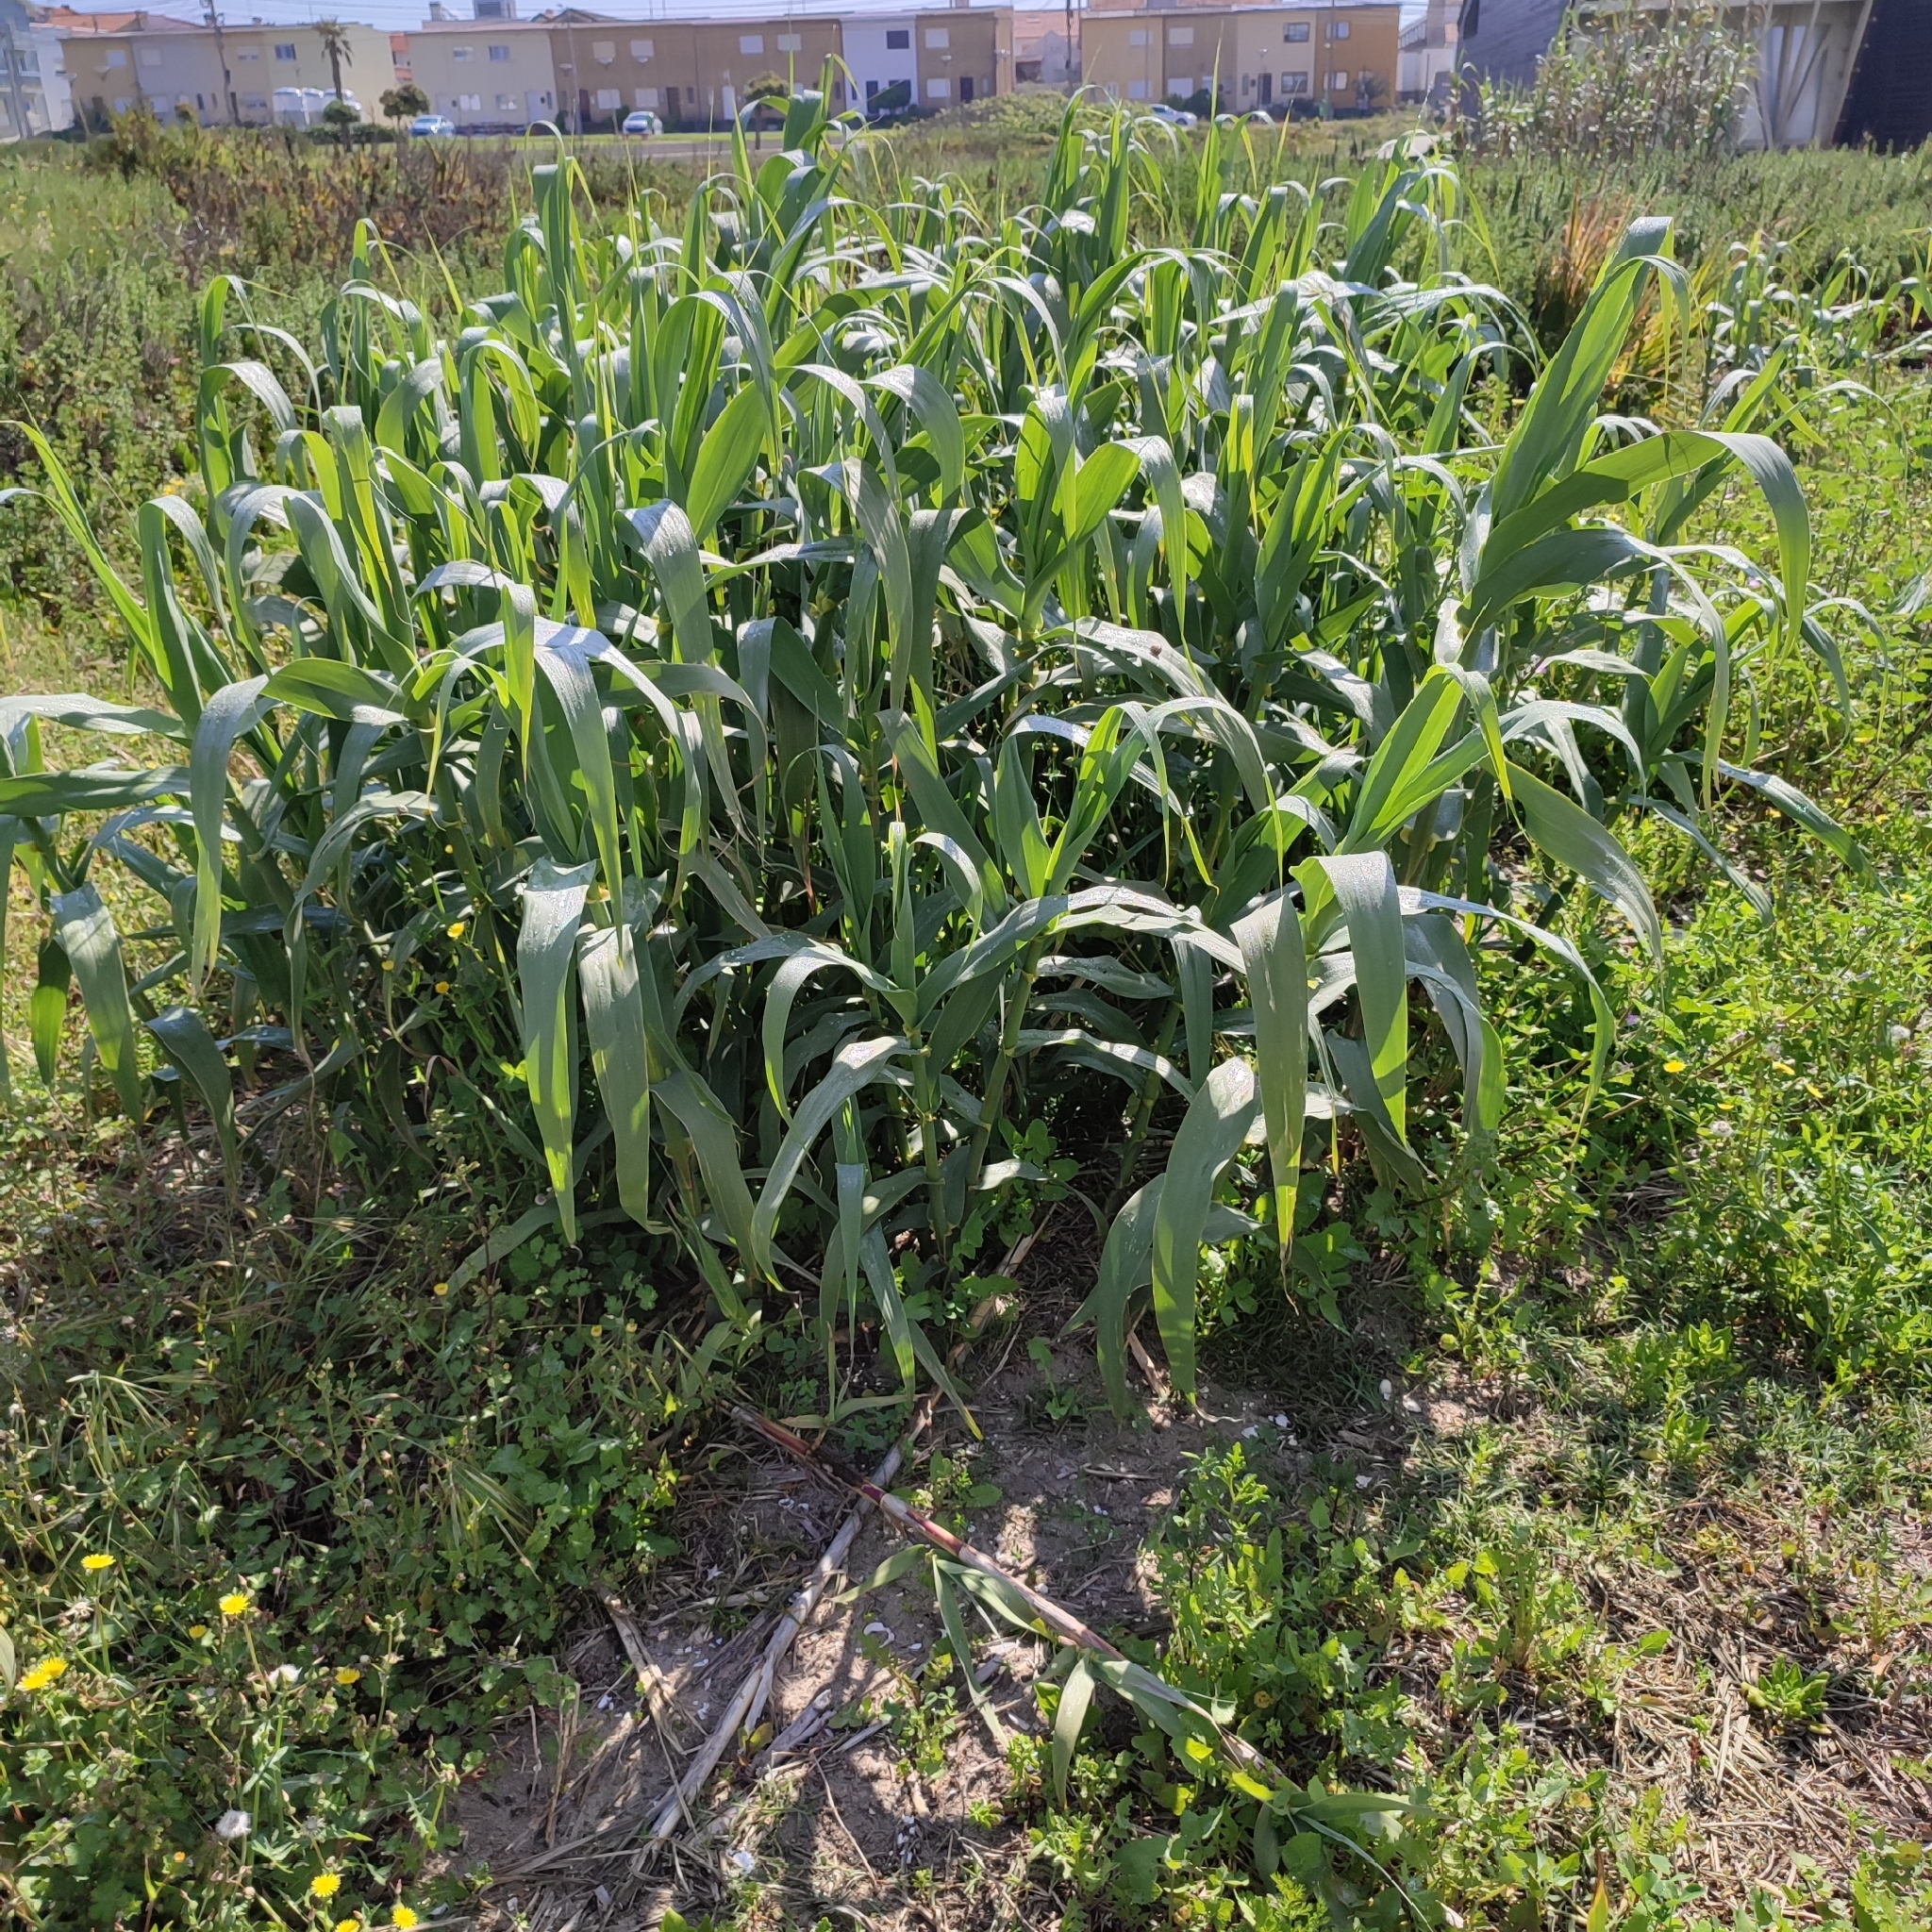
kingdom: Plantae
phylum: Tracheophyta
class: Liliopsida
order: Poales
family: Poaceae
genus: Arundo
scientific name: Arundo donax
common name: Giant reed
